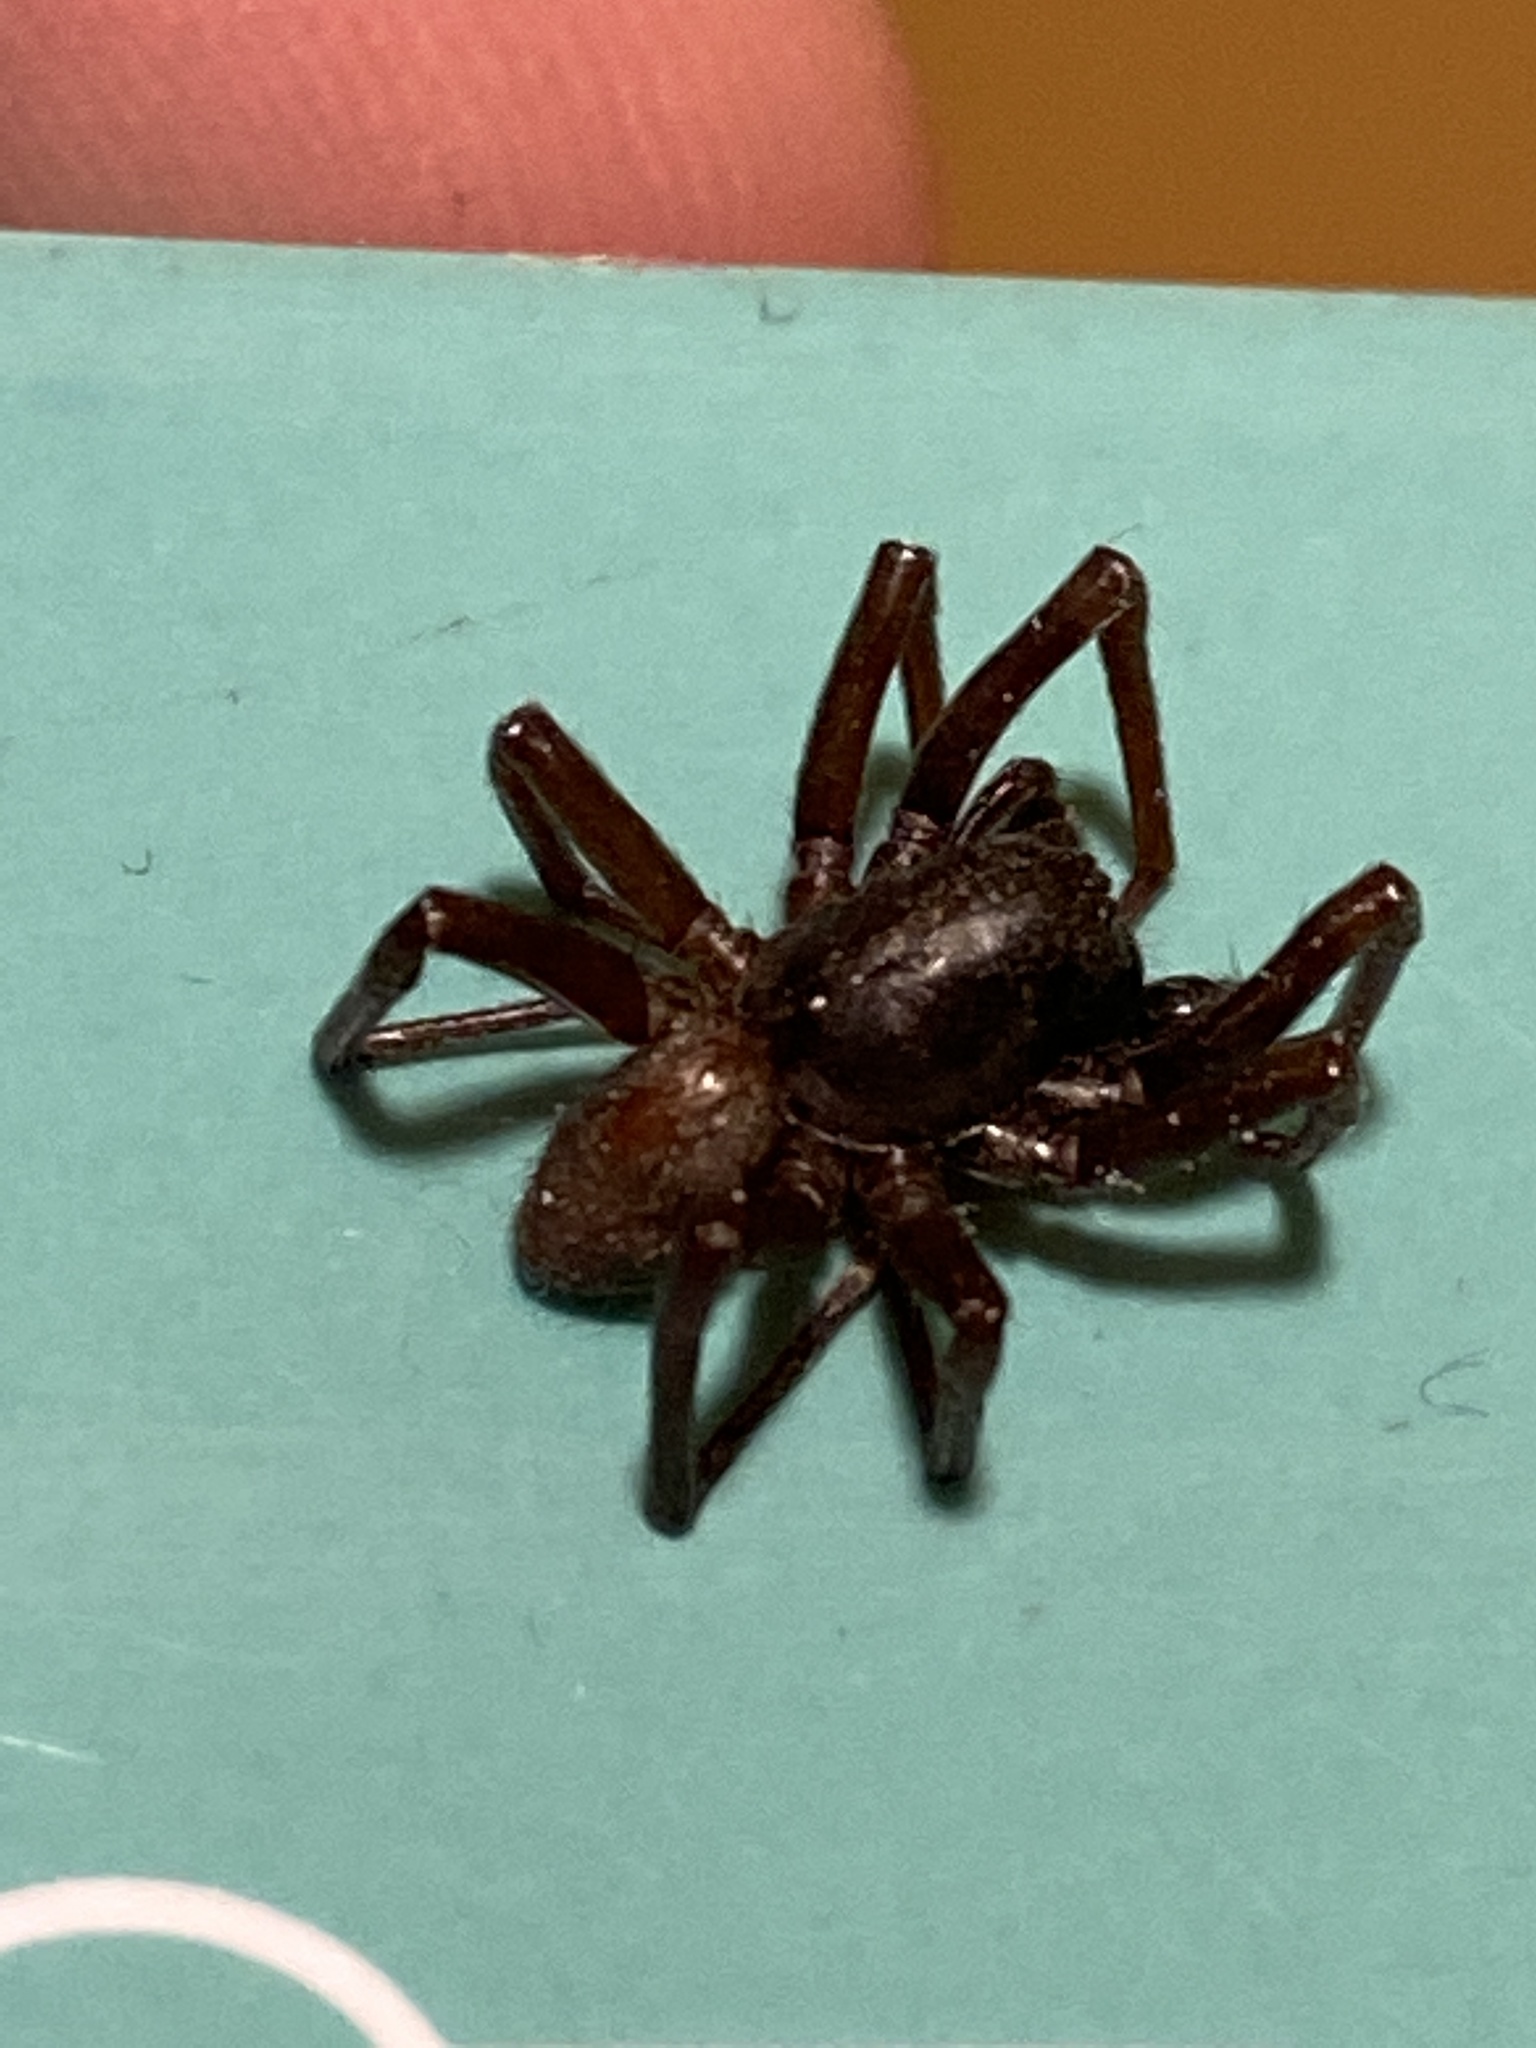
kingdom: Animalia
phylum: Arthropoda
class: Arachnida
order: Araneae
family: Segestriidae
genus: Segestria
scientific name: Segestria florentina
